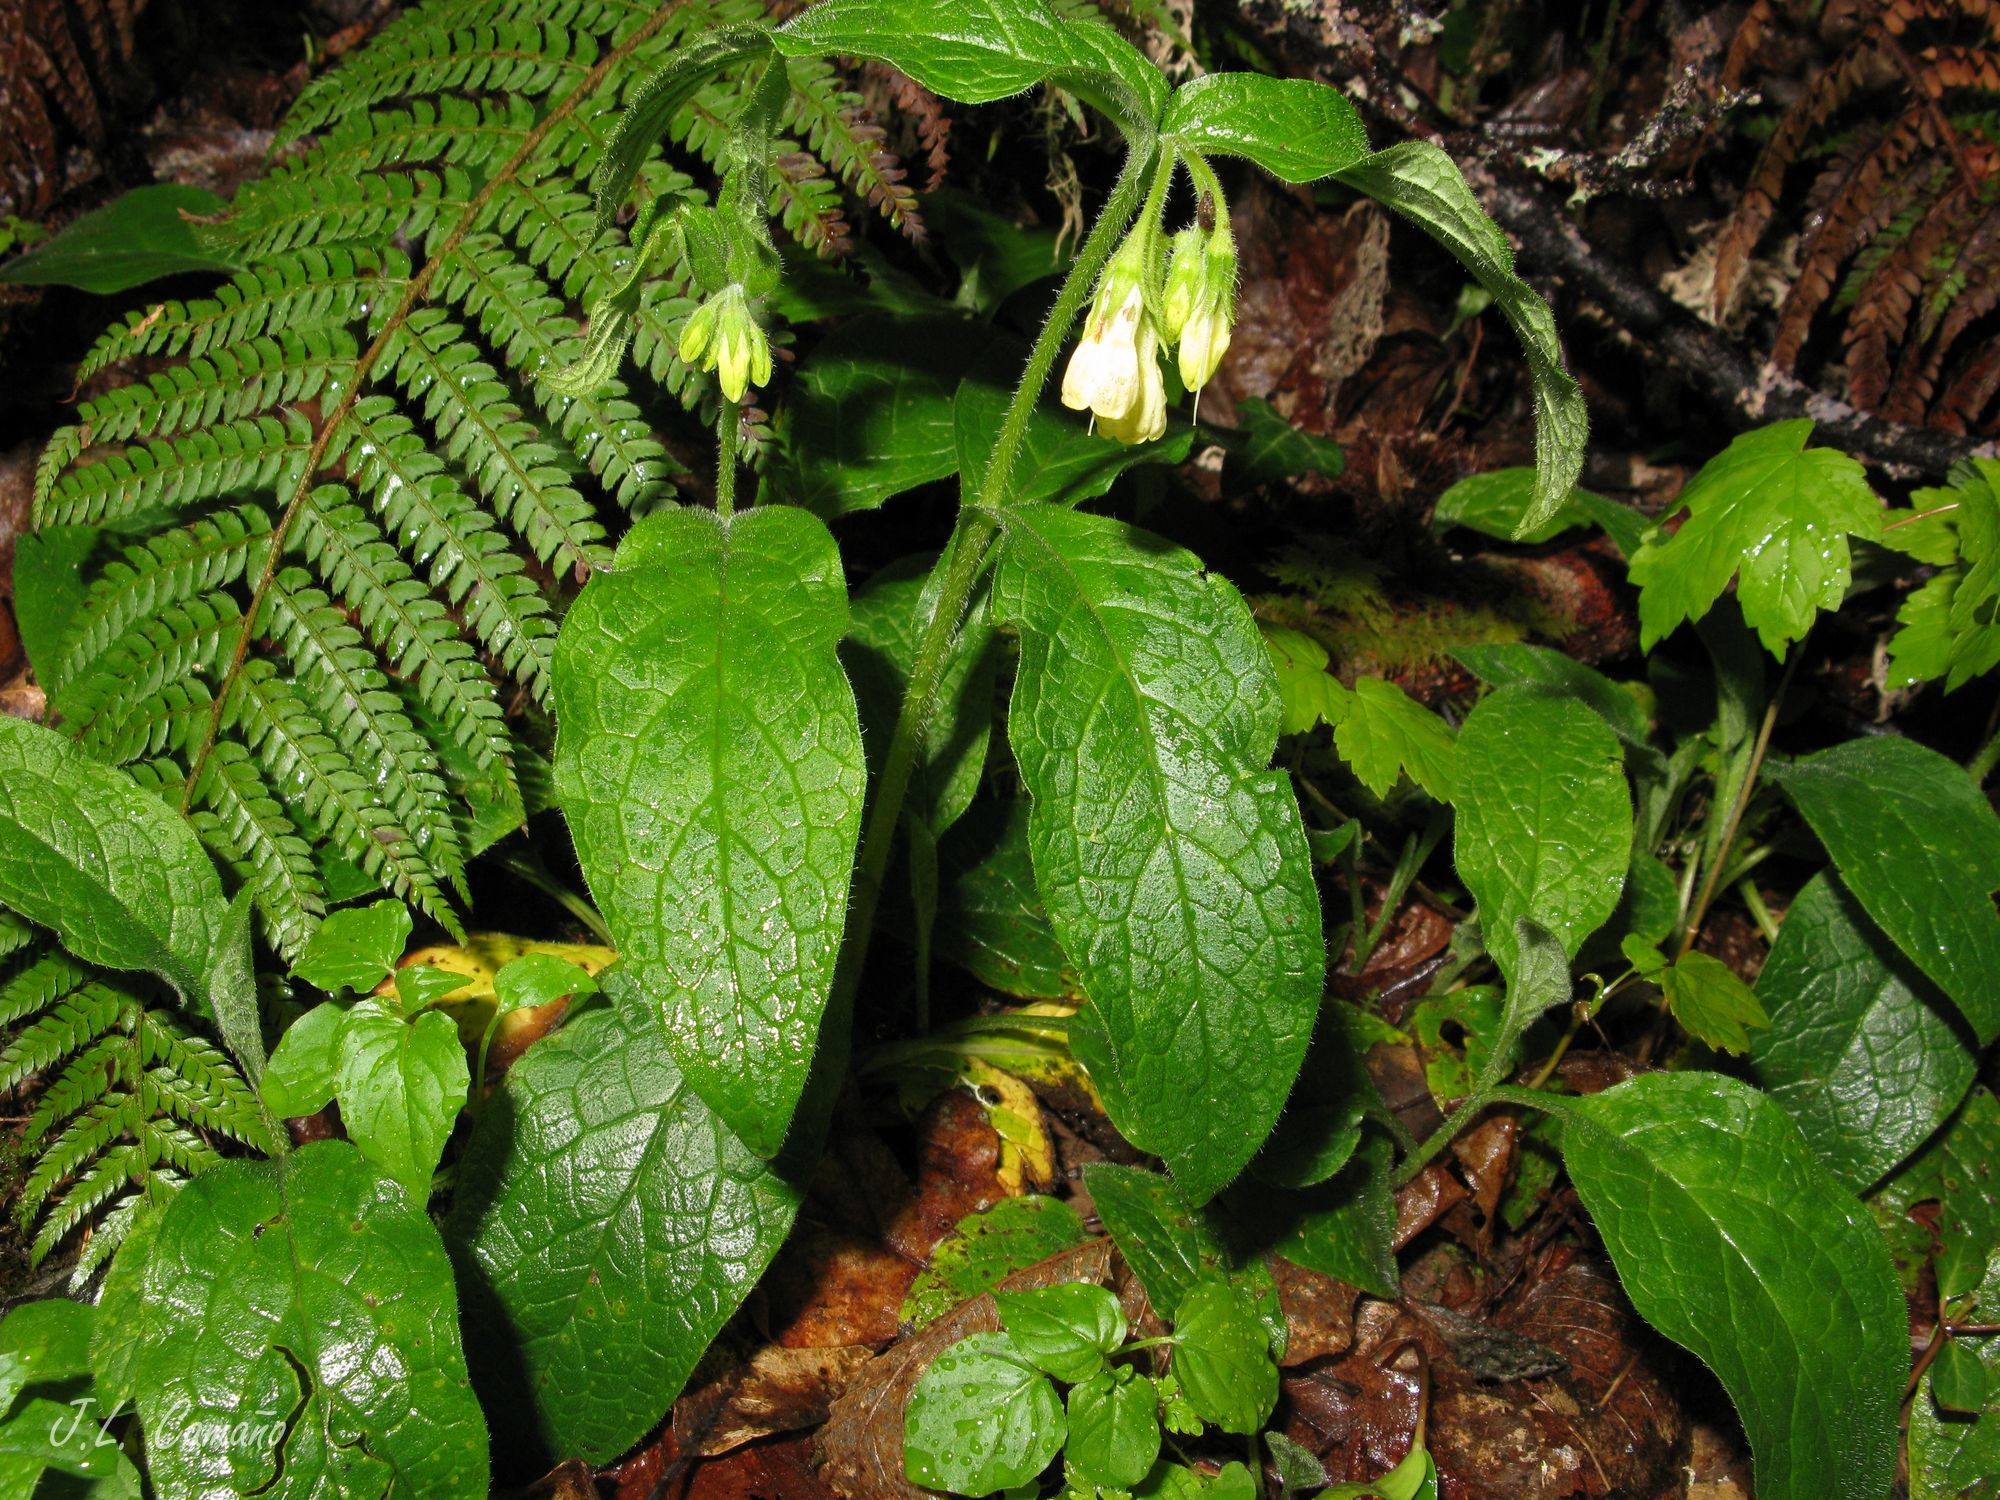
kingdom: Plantae
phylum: Tracheophyta
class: Magnoliopsida
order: Boraginales
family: Boraginaceae
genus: Symphytum
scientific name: Symphytum tuberosum
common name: Tuberous comfrey
